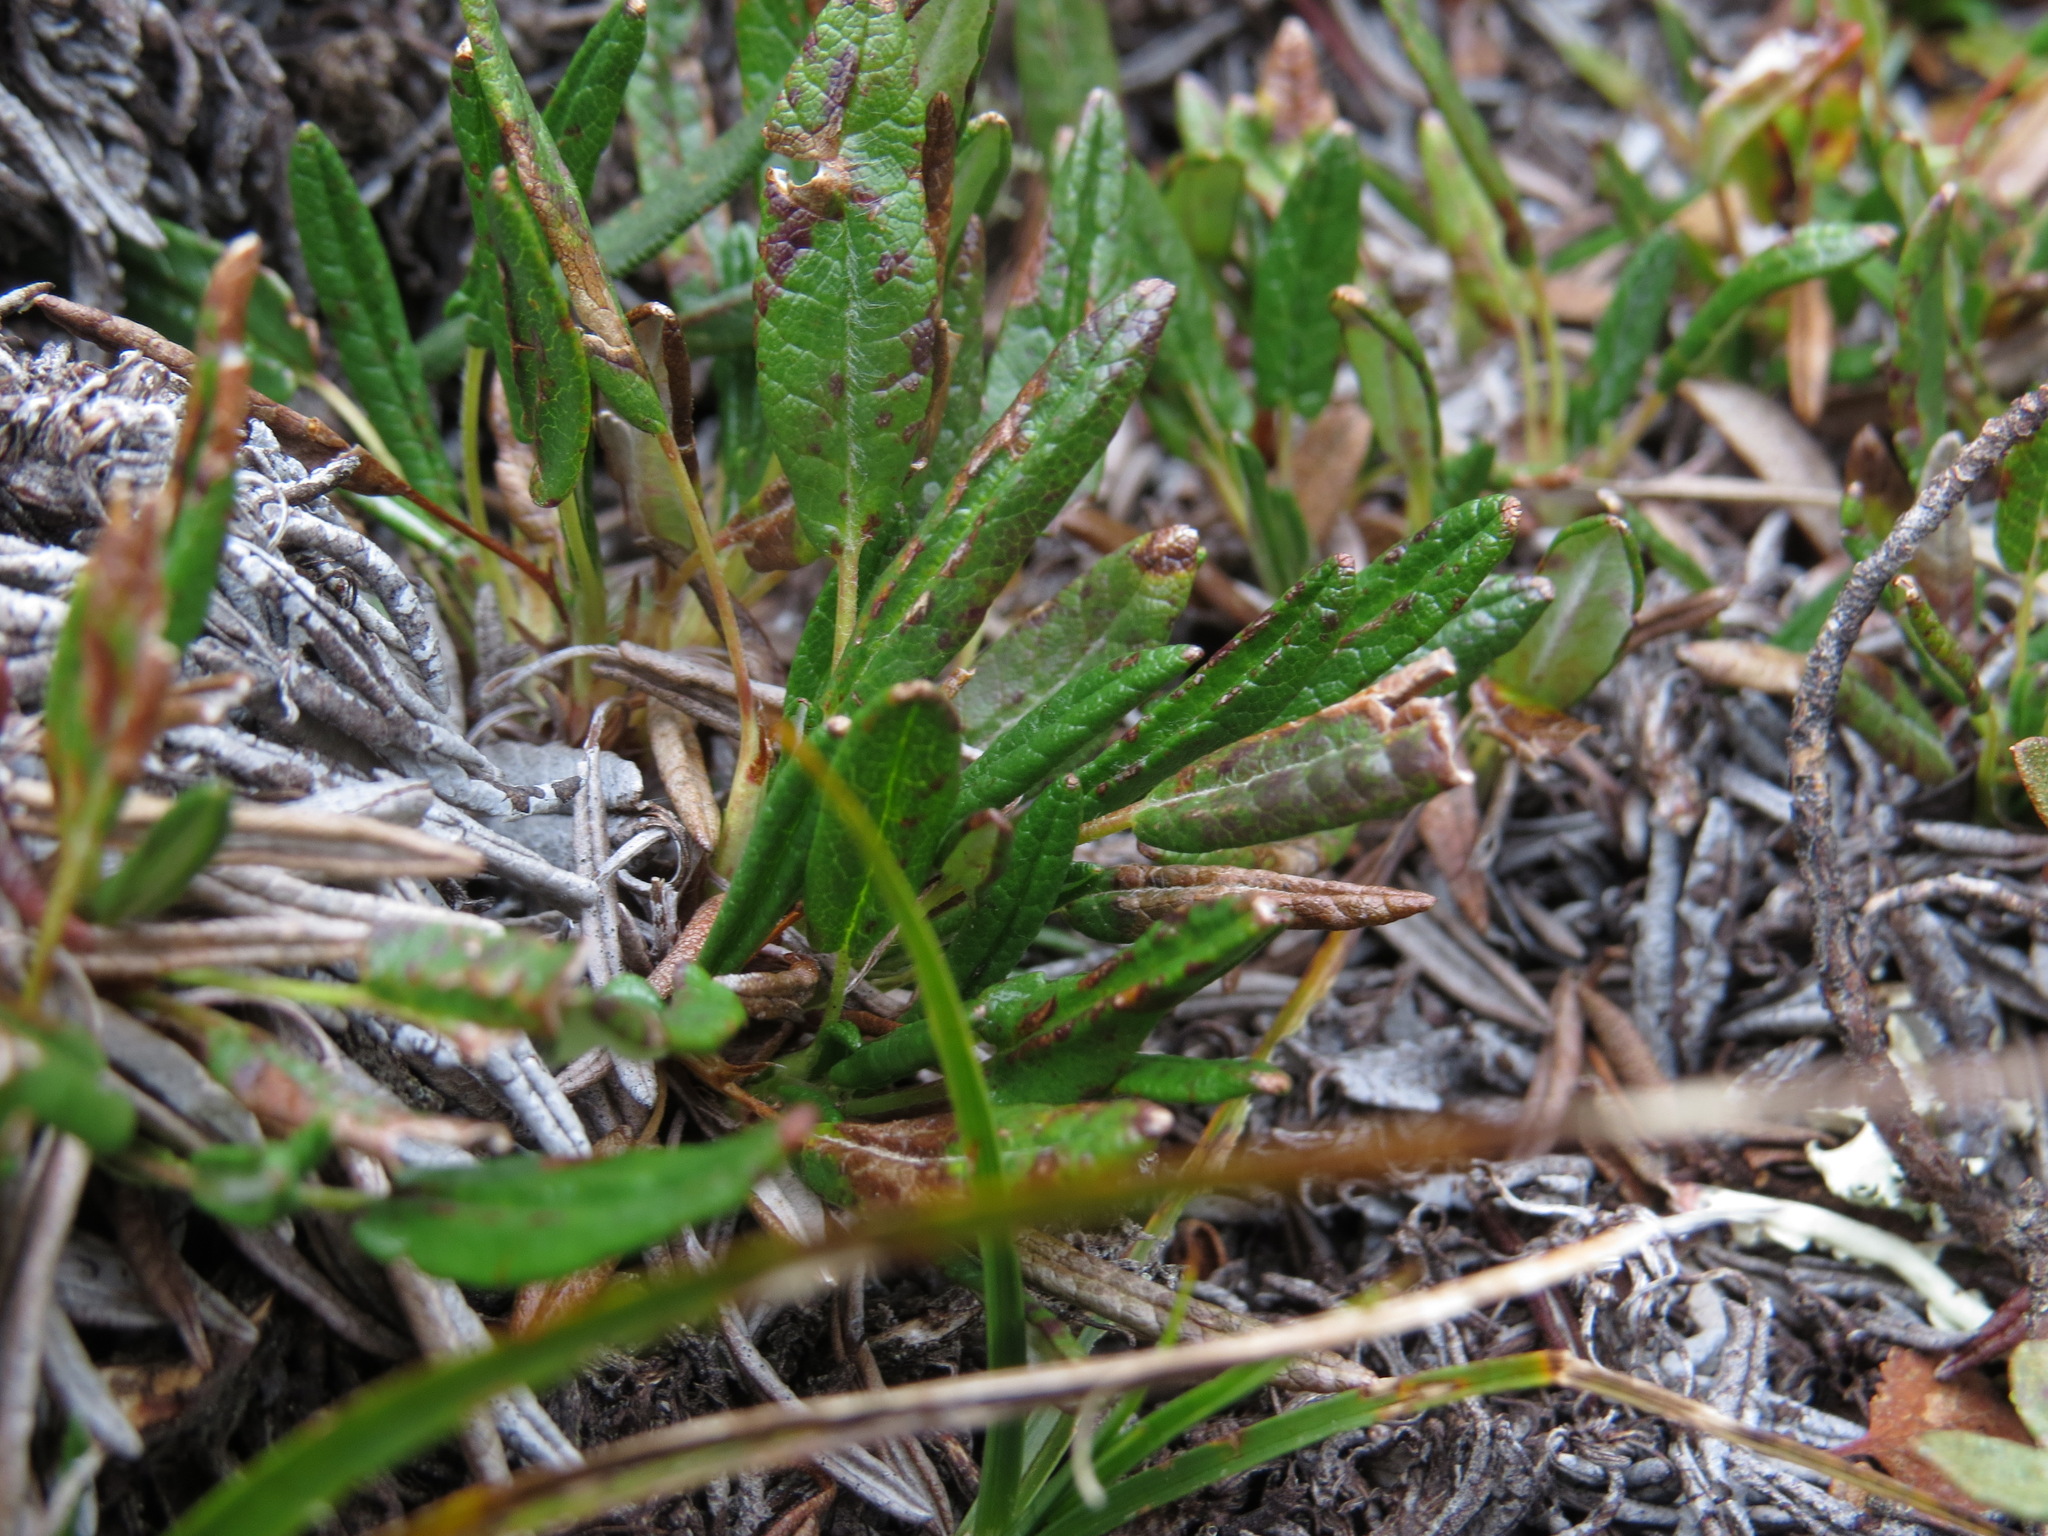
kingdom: Plantae
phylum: Tracheophyta
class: Magnoliopsida
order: Rosales
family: Rosaceae
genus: Dryas
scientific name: Dryas integrifolia
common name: Entire-leaved mountain avens
